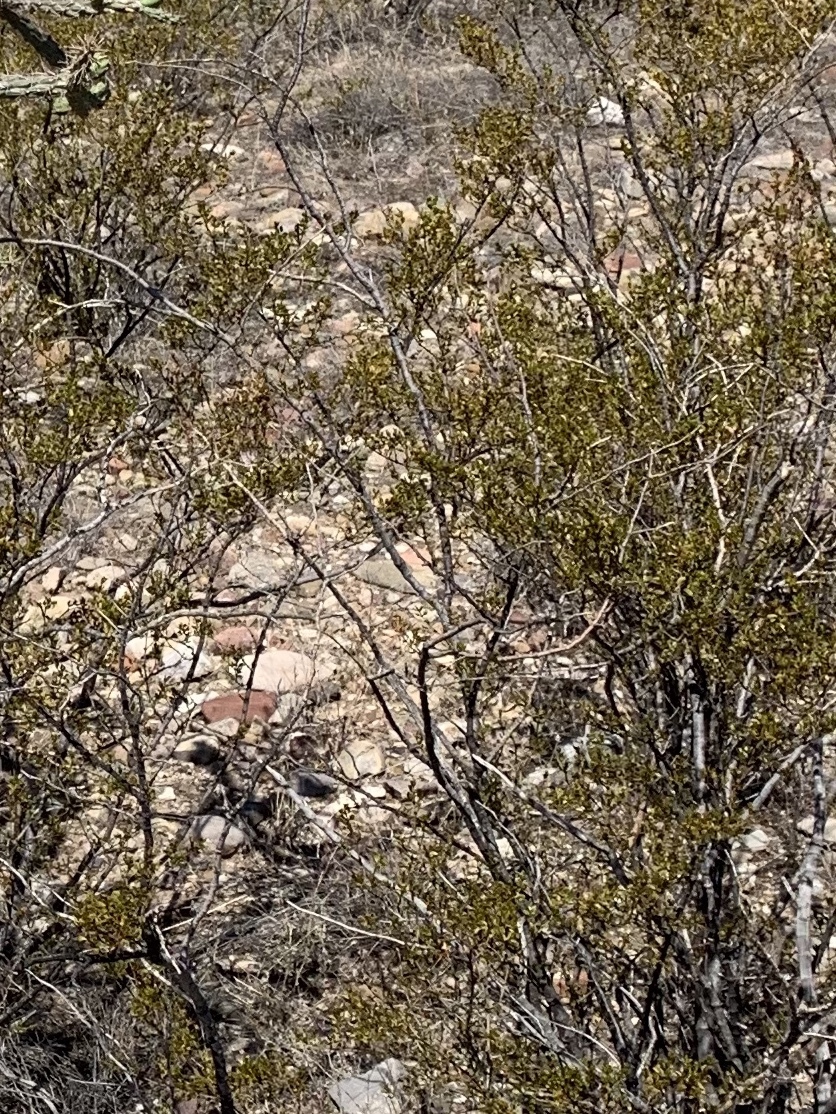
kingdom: Plantae
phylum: Tracheophyta
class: Magnoliopsida
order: Zygophyllales
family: Zygophyllaceae
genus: Larrea
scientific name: Larrea tridentata
